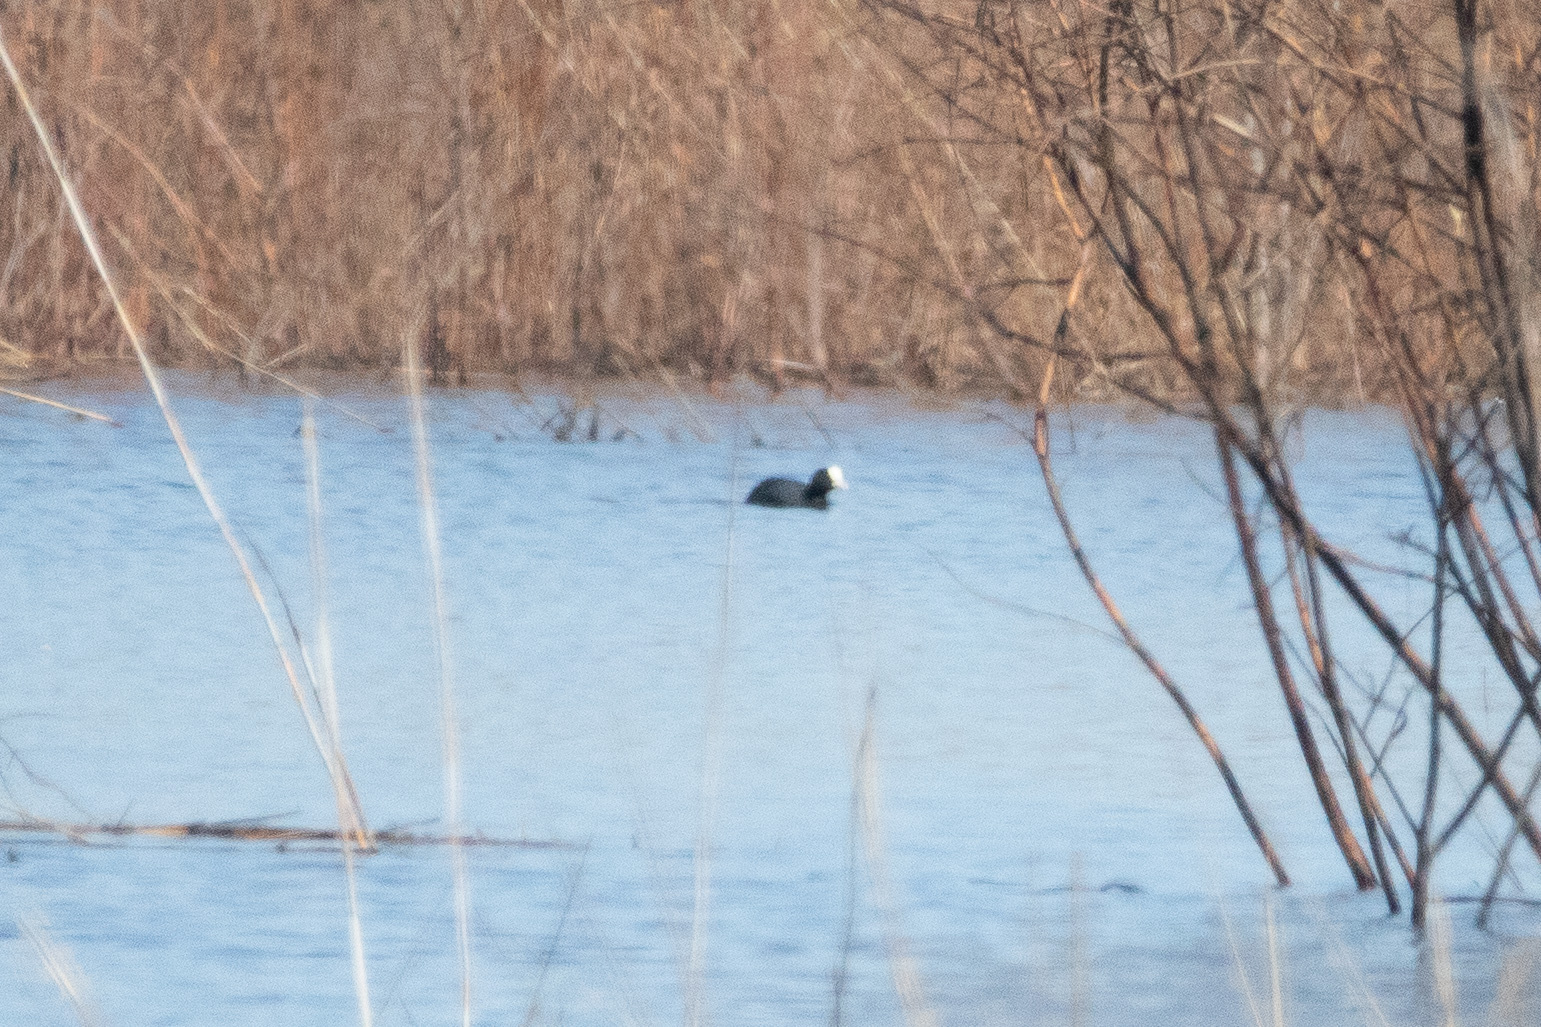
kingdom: Animalia
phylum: Chordata
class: Aves
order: Gruiformes
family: Rallidae
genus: Fulica
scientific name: Fulica atra
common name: Eurasian coot
